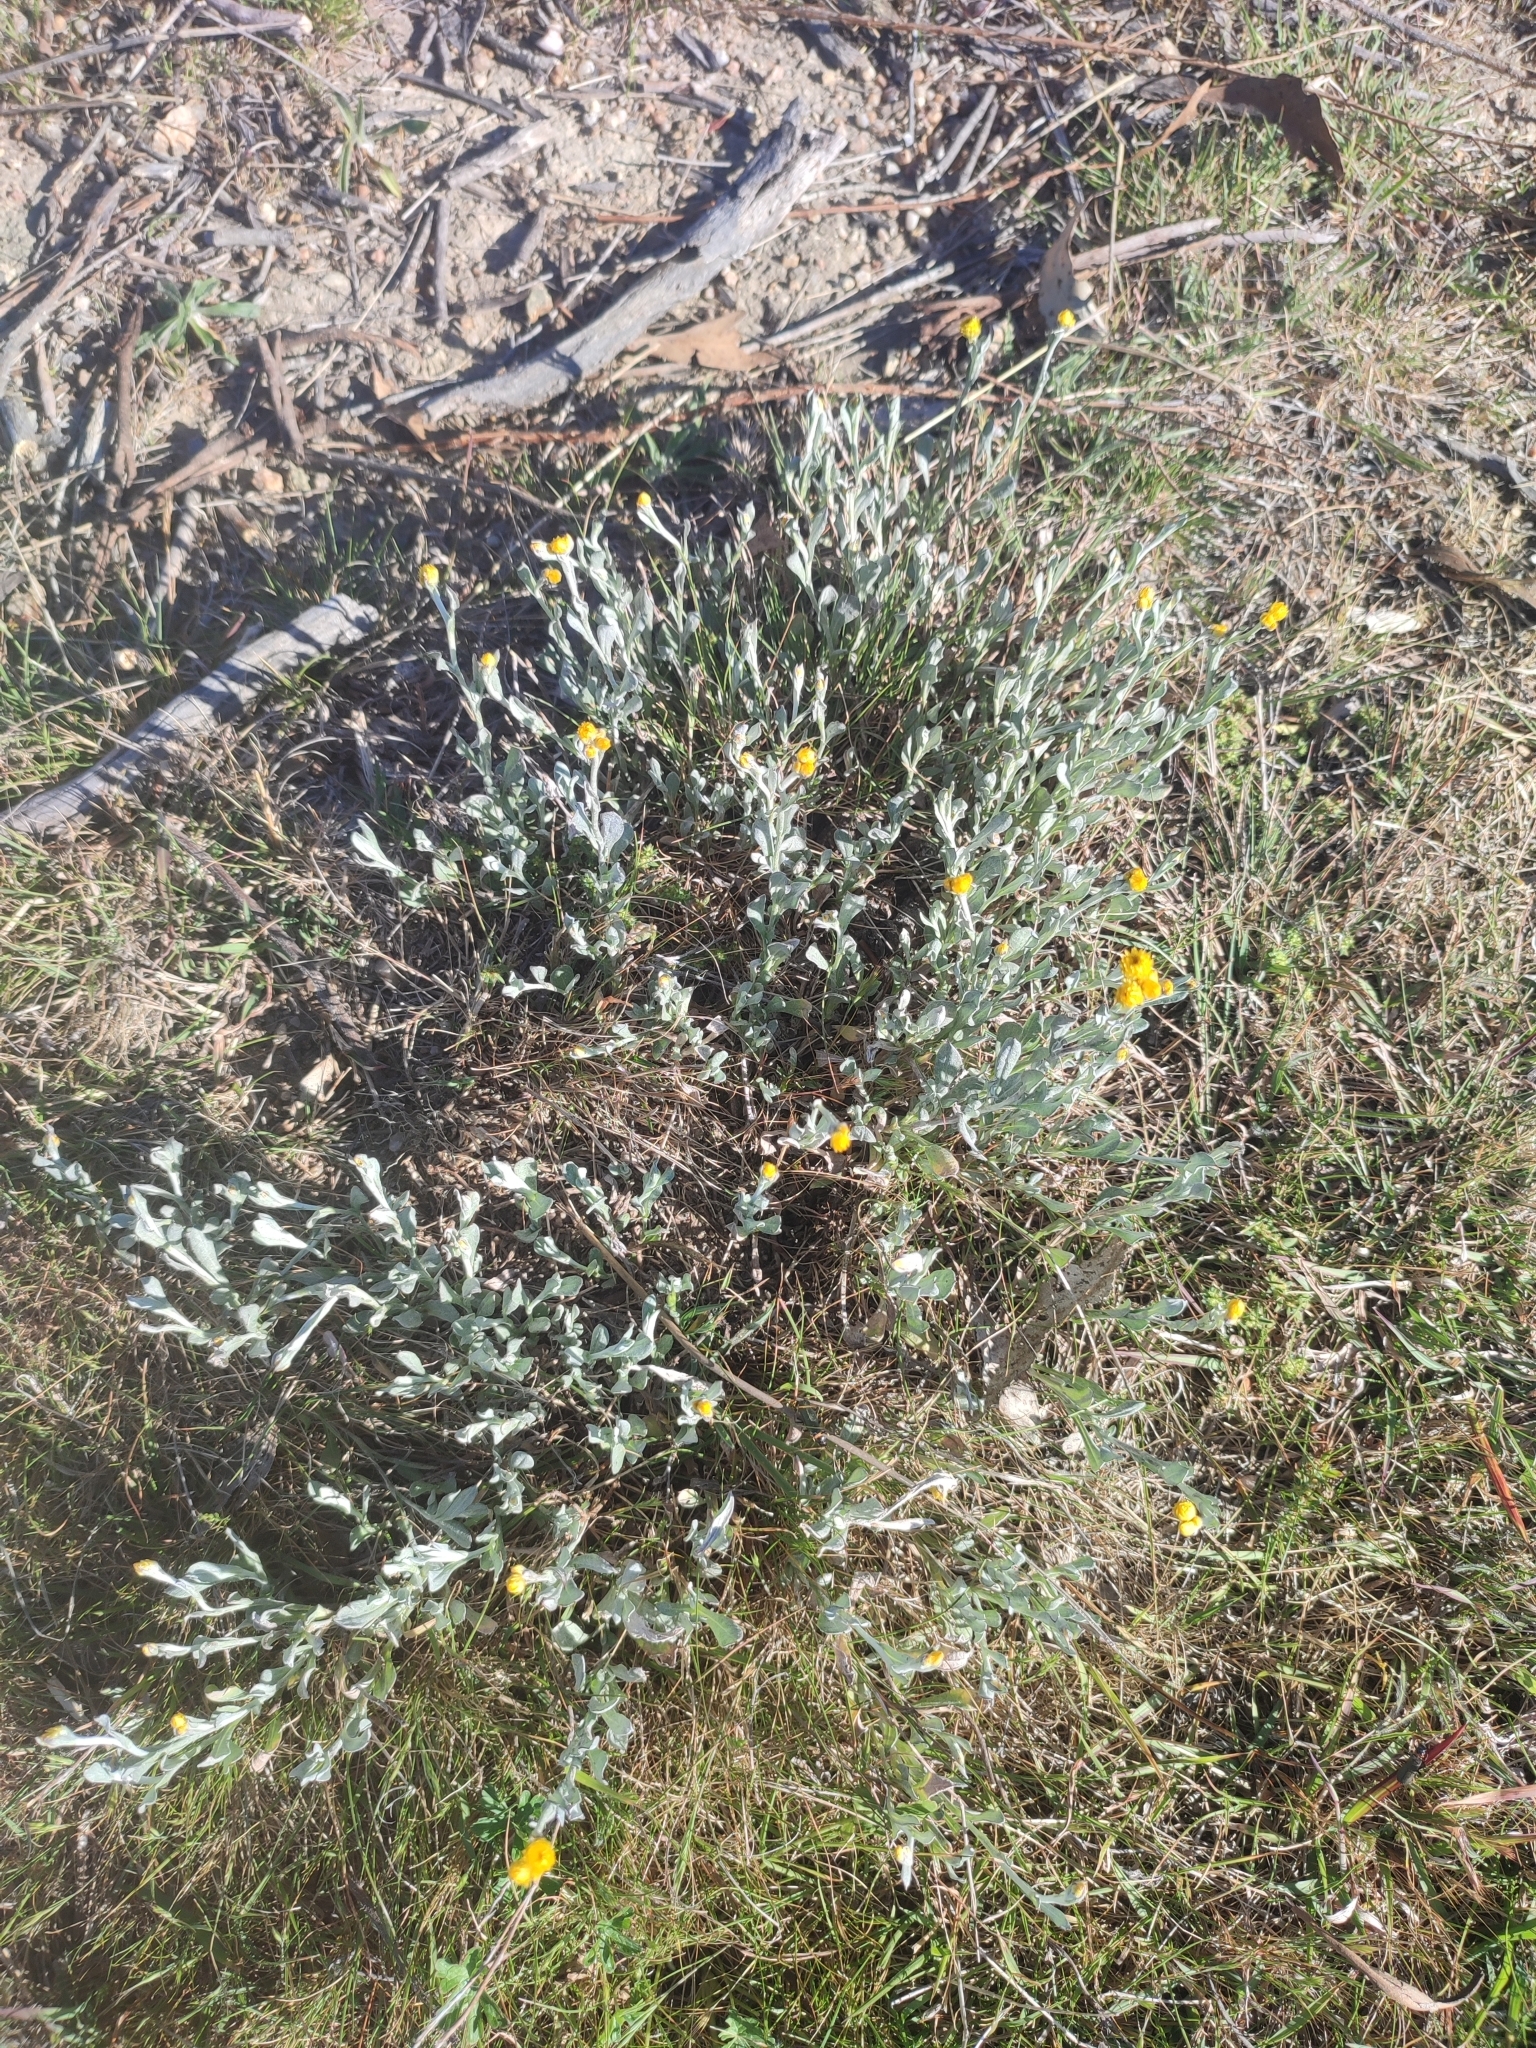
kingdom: Plantae
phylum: Tracheophyta
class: Magnoliopsida
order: Asterales
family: Asteraceae
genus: Chrysocephalum
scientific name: Chrysocephalum apiculatum
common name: Common everlasting
